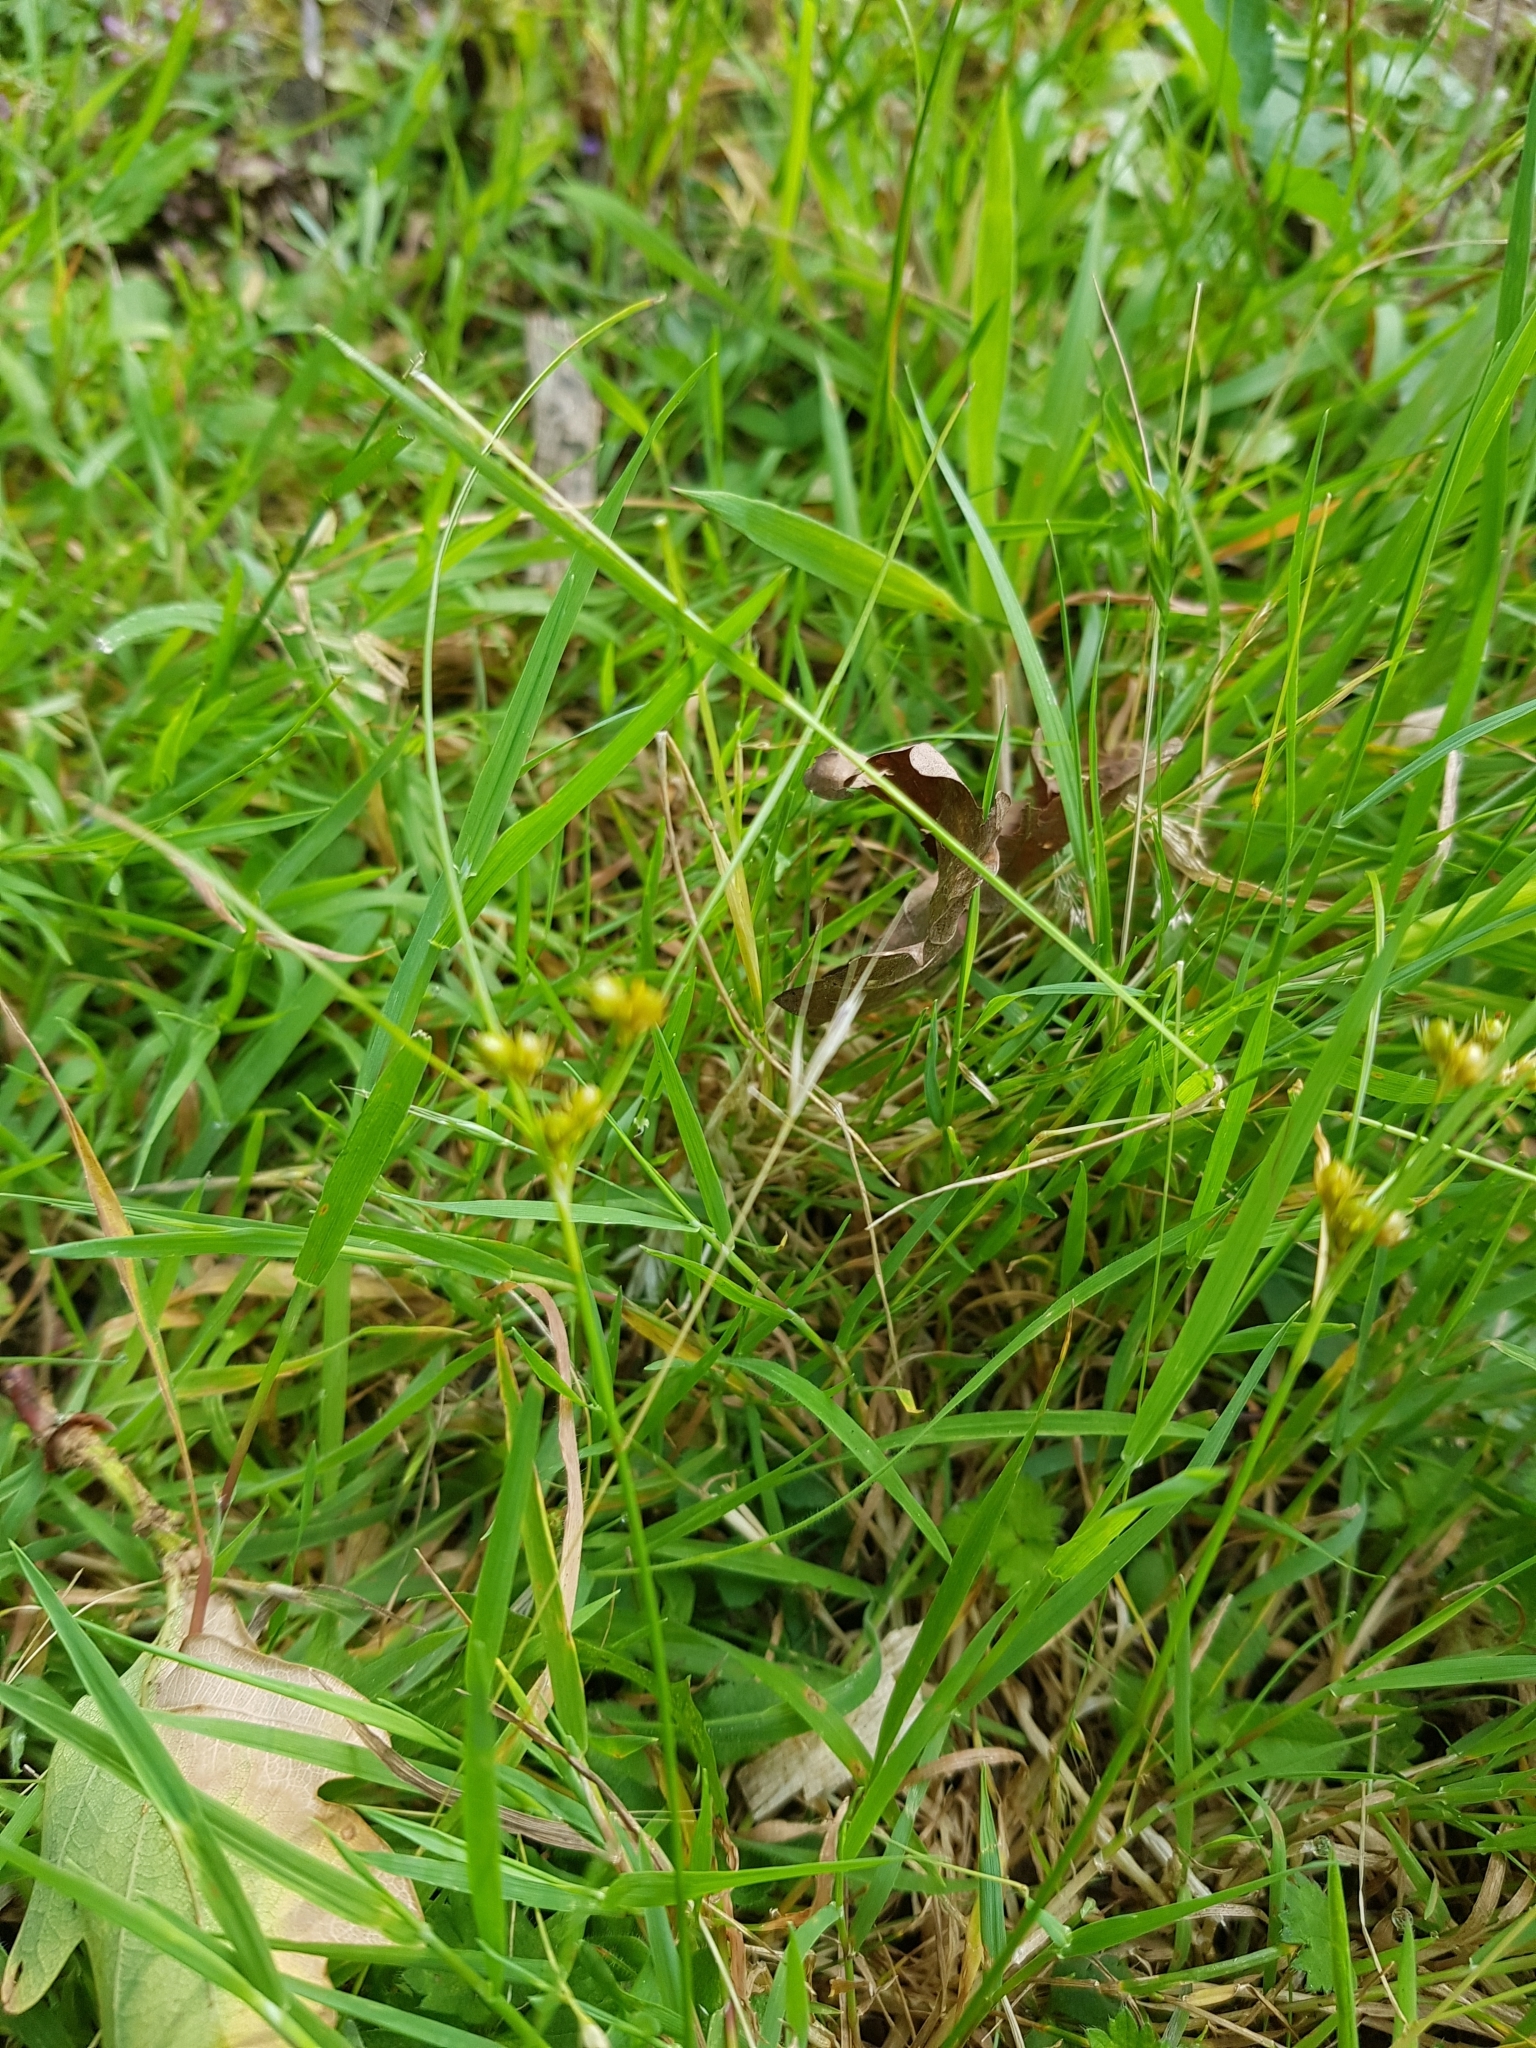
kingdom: Plantae
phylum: Tracheophyta
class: Liliopsida
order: Poales
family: Juncaceae
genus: Juncus
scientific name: Juncus tenuis
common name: Slender rush
